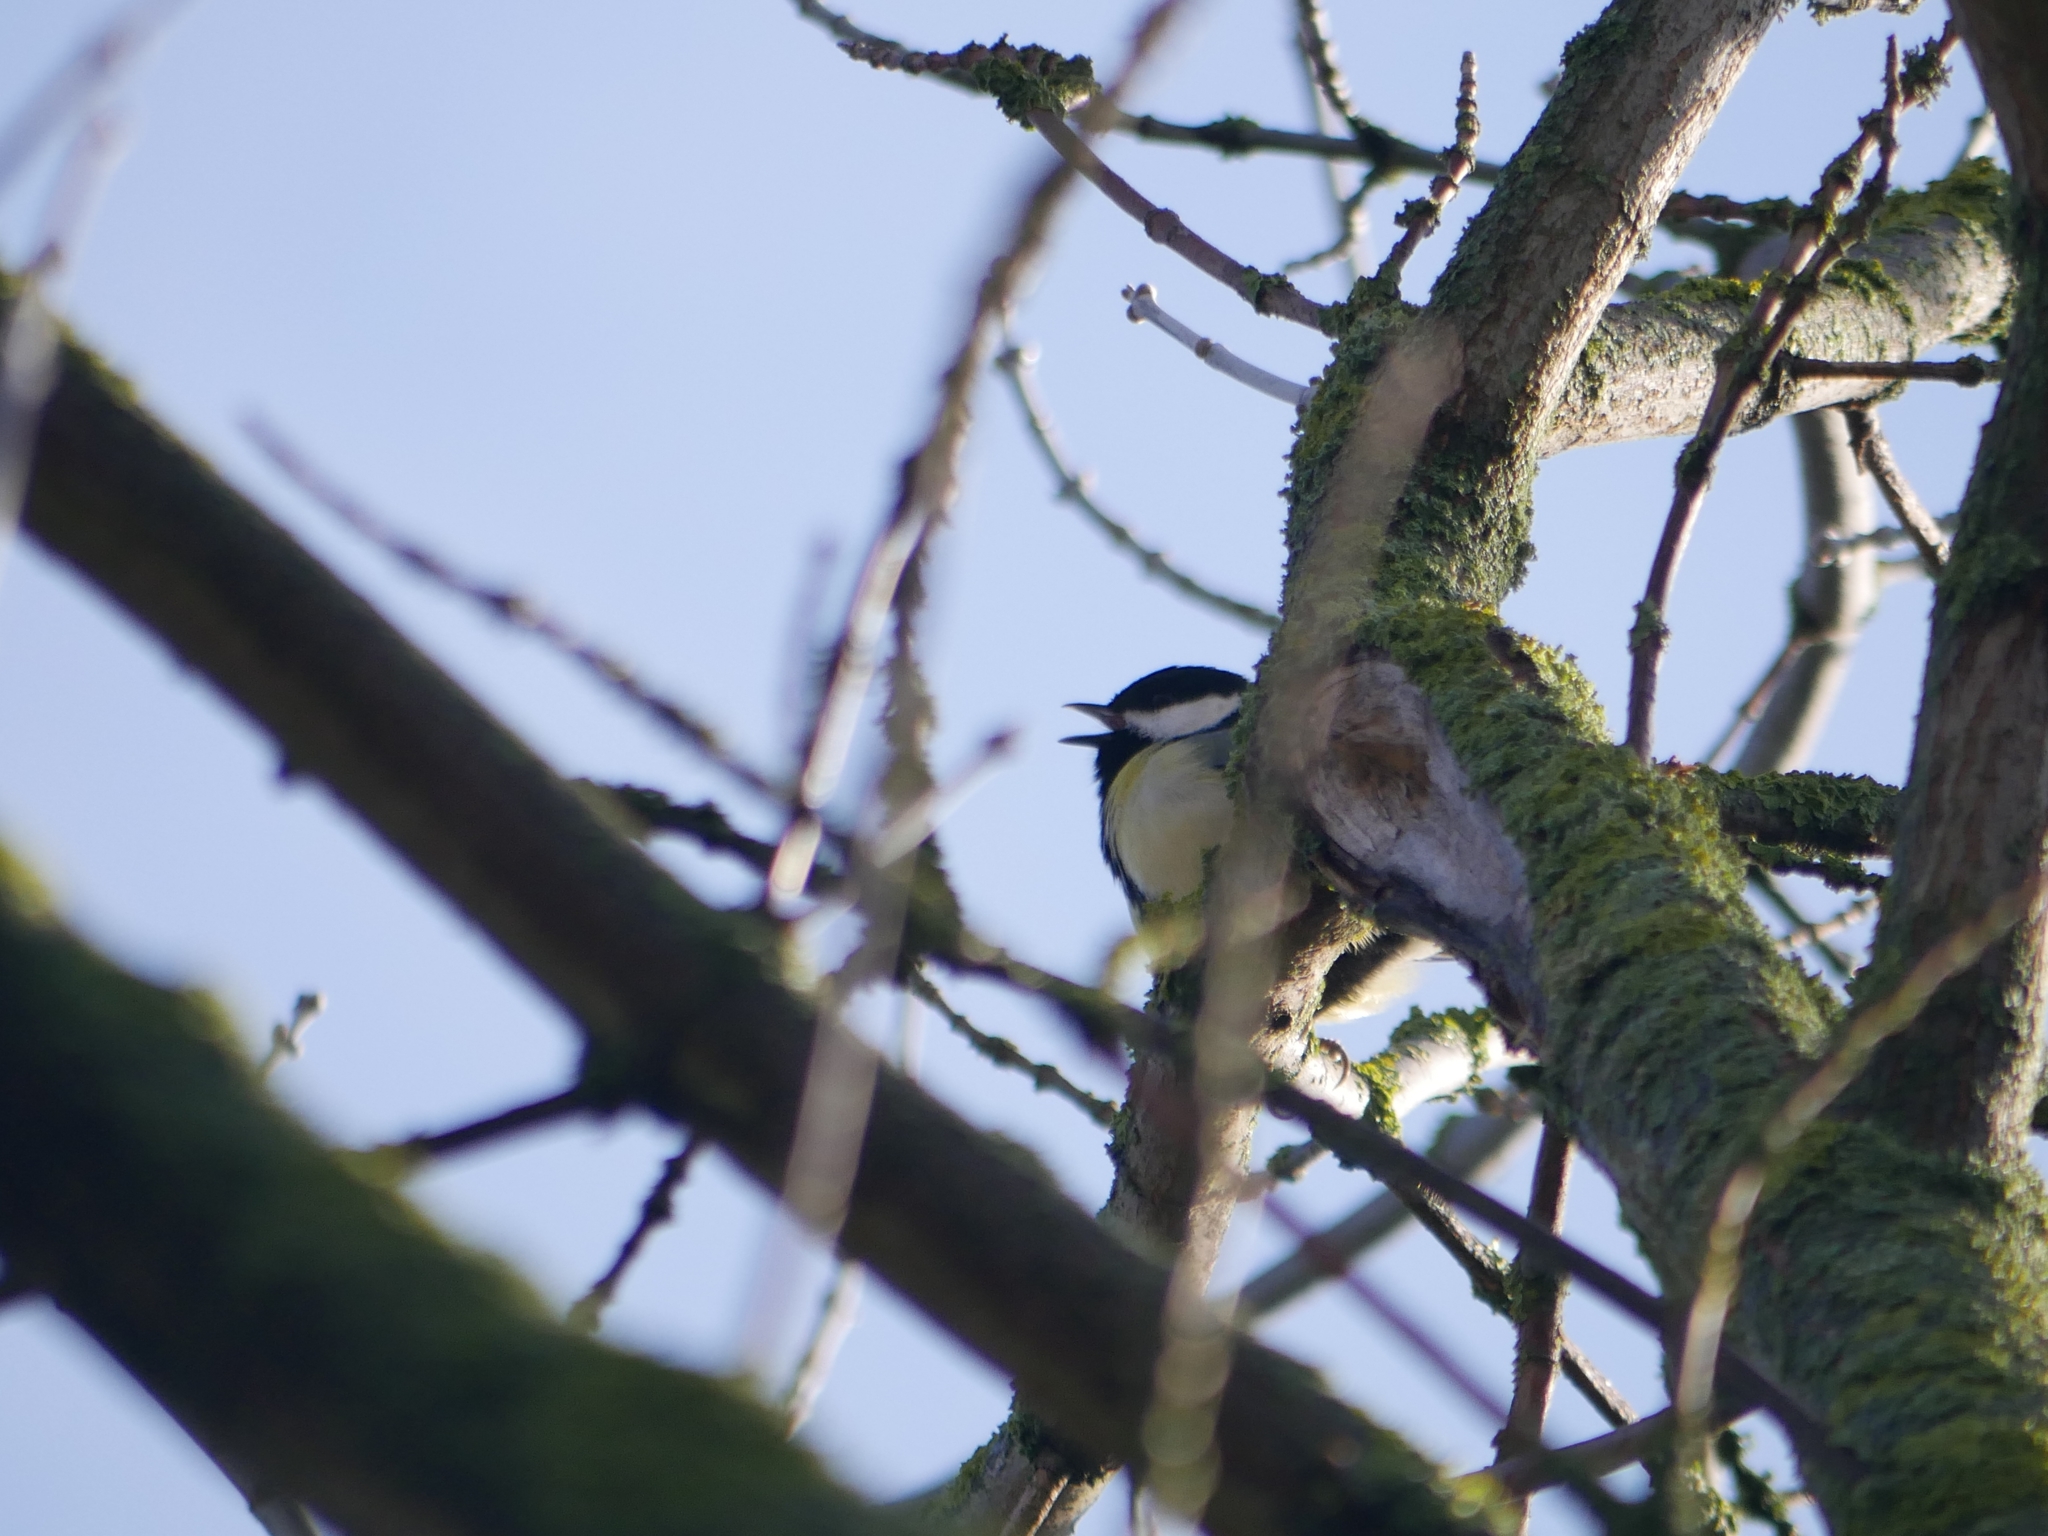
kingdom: Animalia
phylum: Chordata
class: Aves
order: Passeriformes
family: Paridae
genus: Parus
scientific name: Parus major
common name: Great tit
